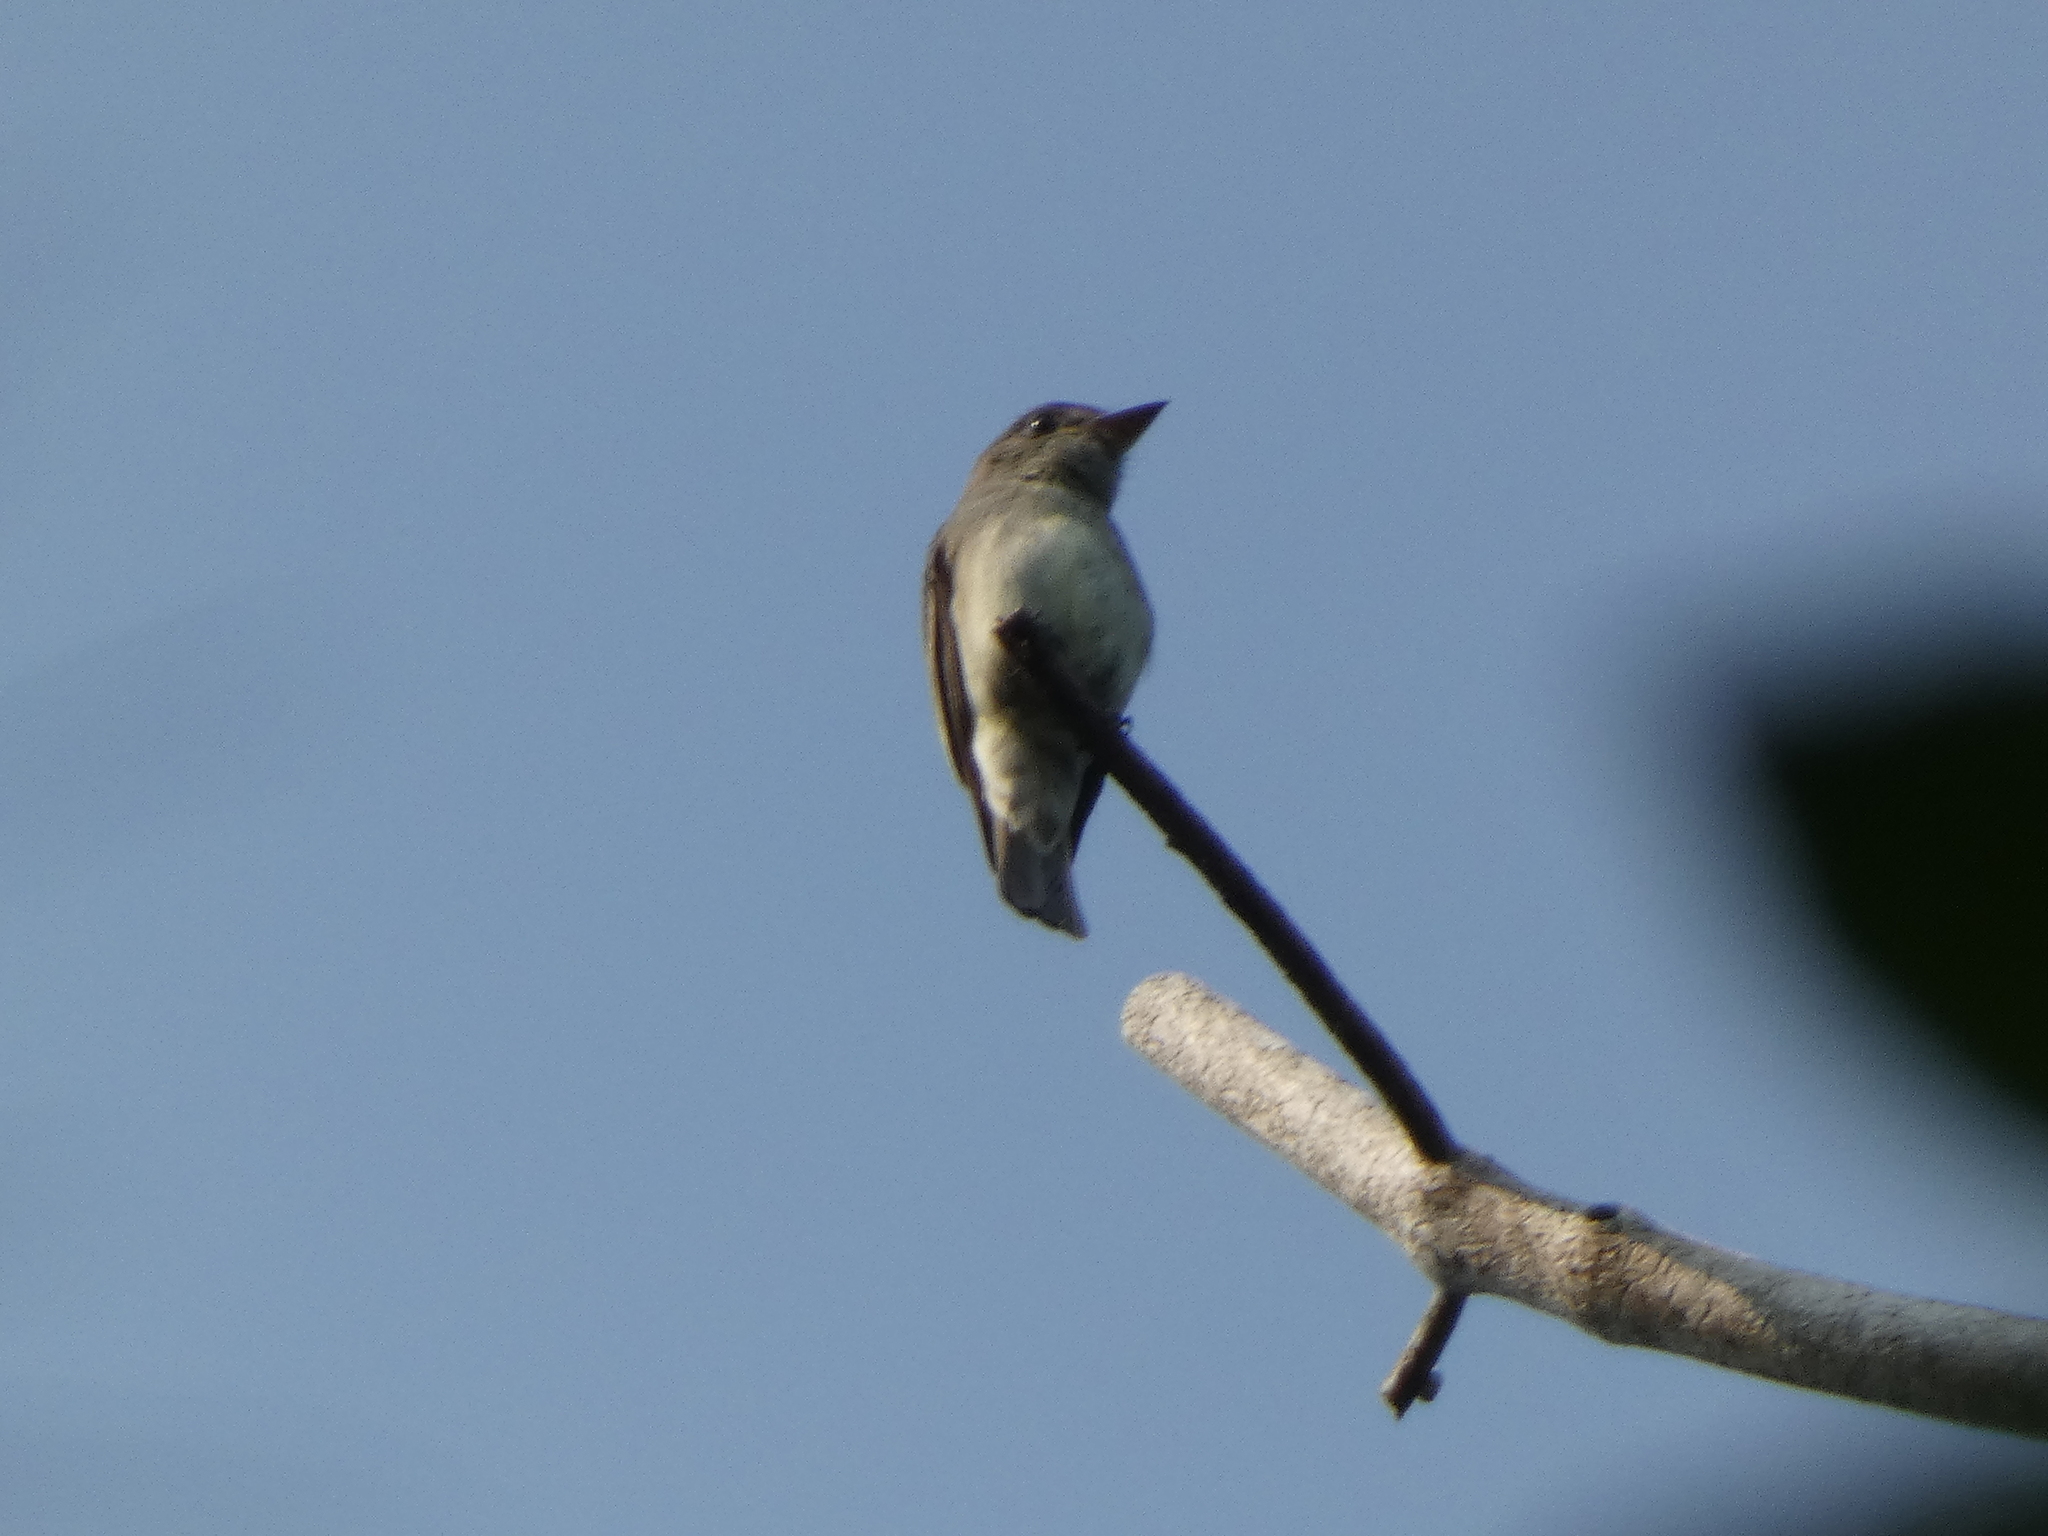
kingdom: Animalia
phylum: Chordata
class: Aves
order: Passeriformes
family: Tyrannidae
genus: Contopus
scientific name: Contopus virens
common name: Eastern wood-pewee
